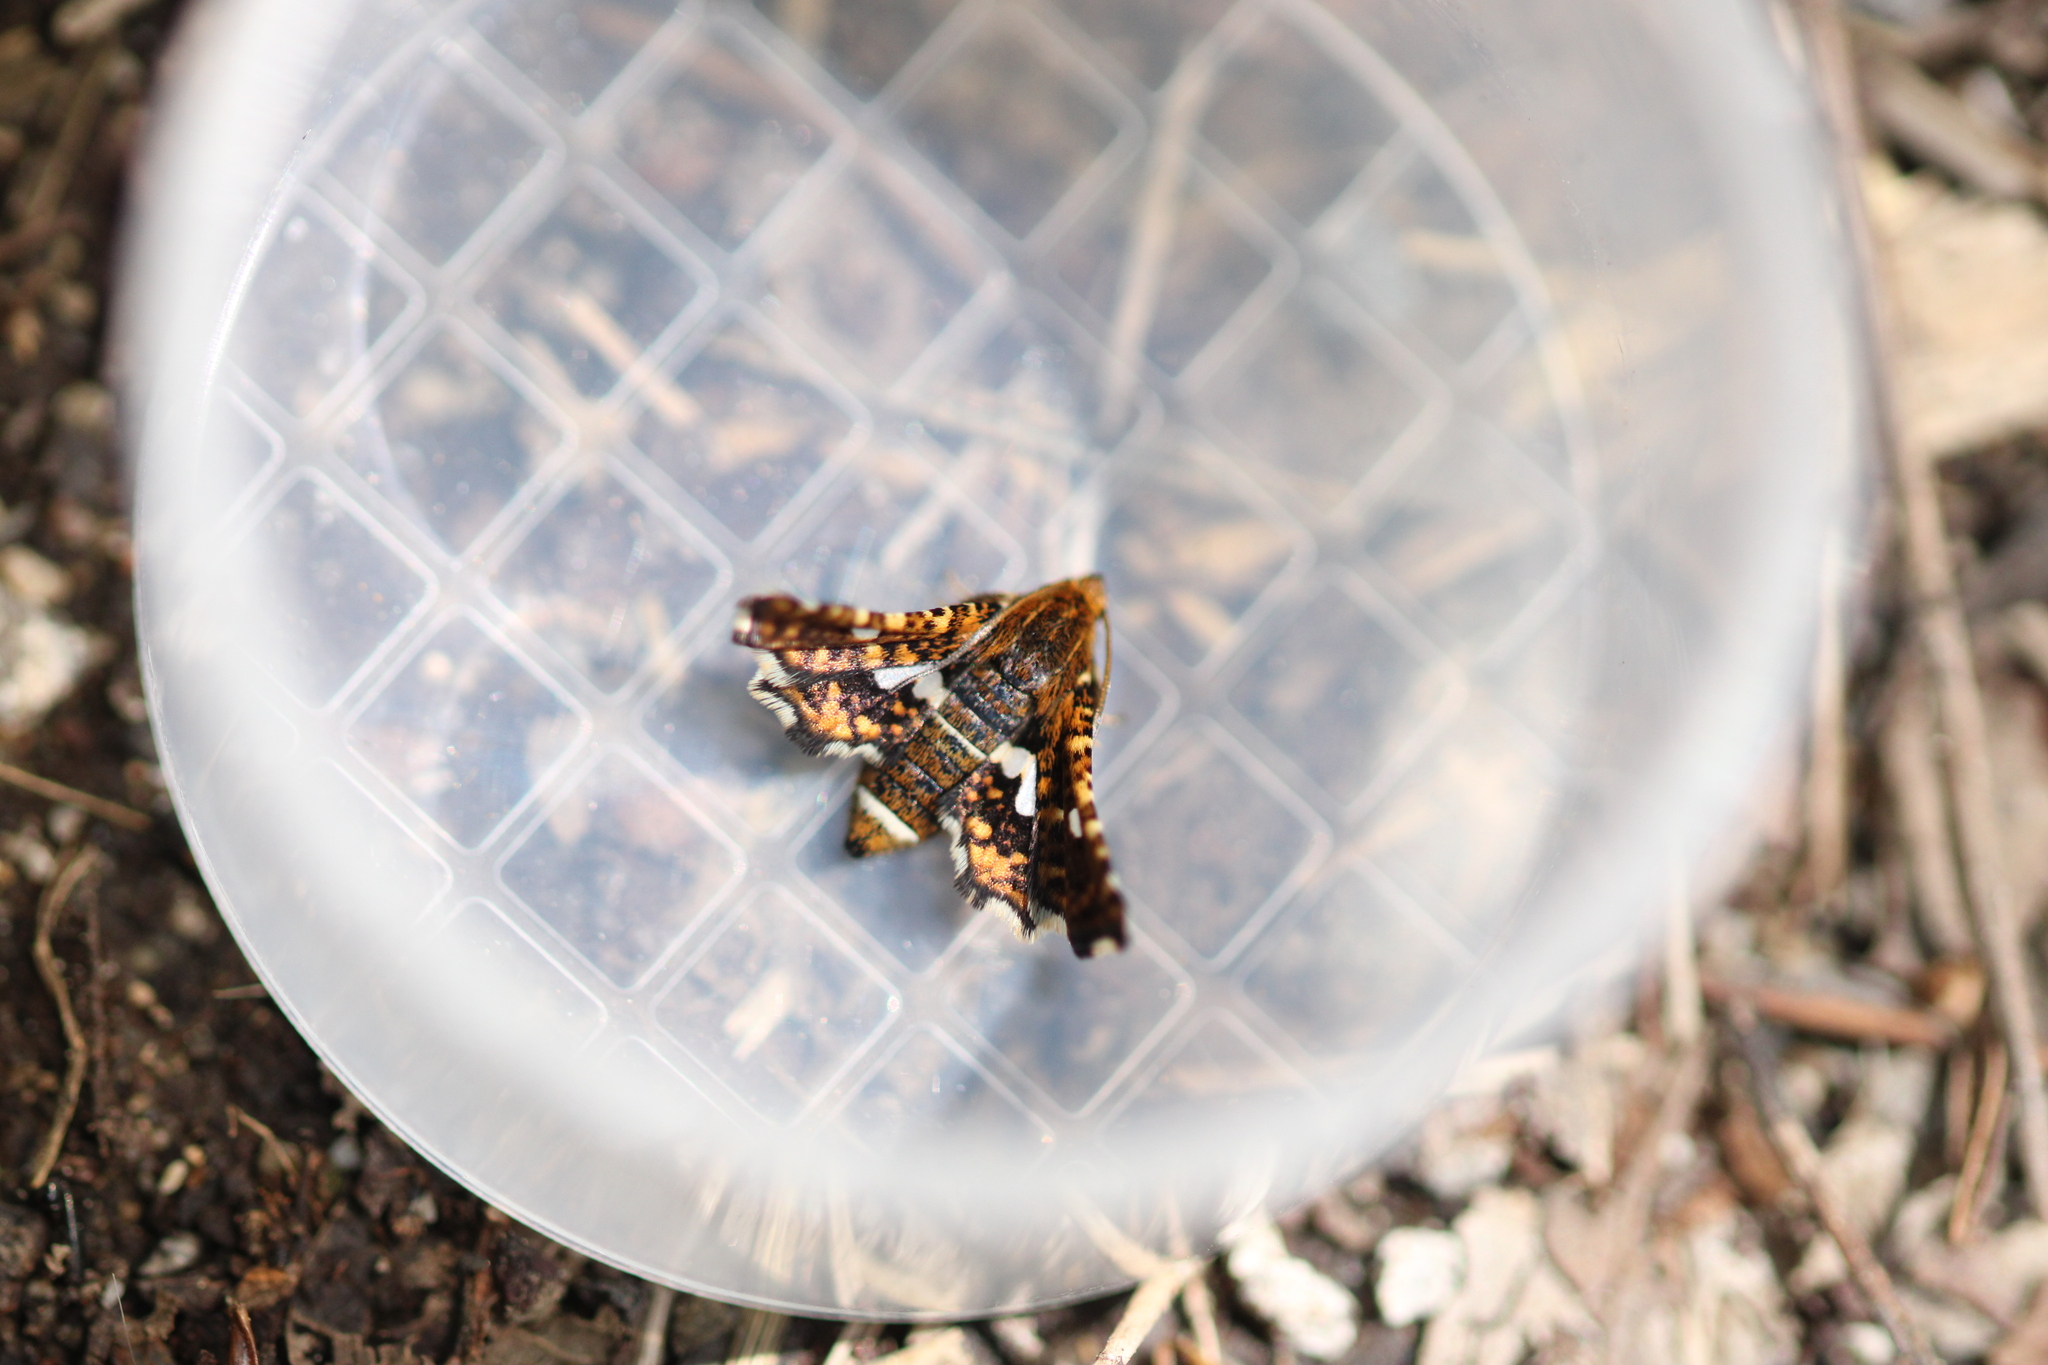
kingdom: Animalia
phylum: Arthropoda
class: Insecta
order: Lepidoptera
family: Thyrididae
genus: Thyris
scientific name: Thyris fenestrella
